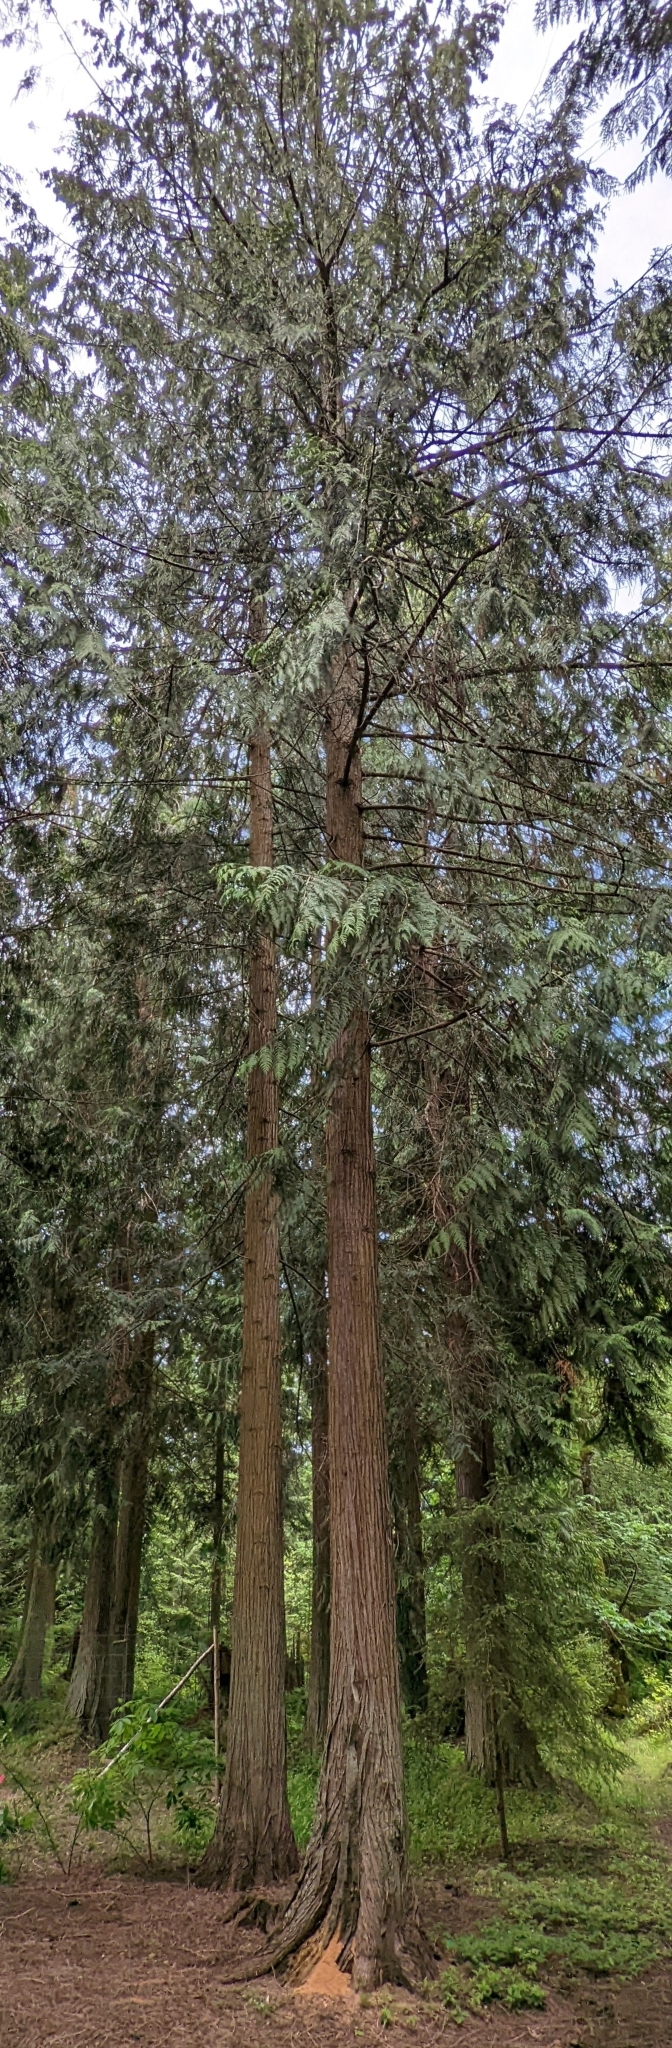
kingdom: Plantae
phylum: Tracheophyta
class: Pinopsida
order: Pinales
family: Cupressaceae
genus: Thuja
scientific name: Thuja plicata
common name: Western red-cedar
